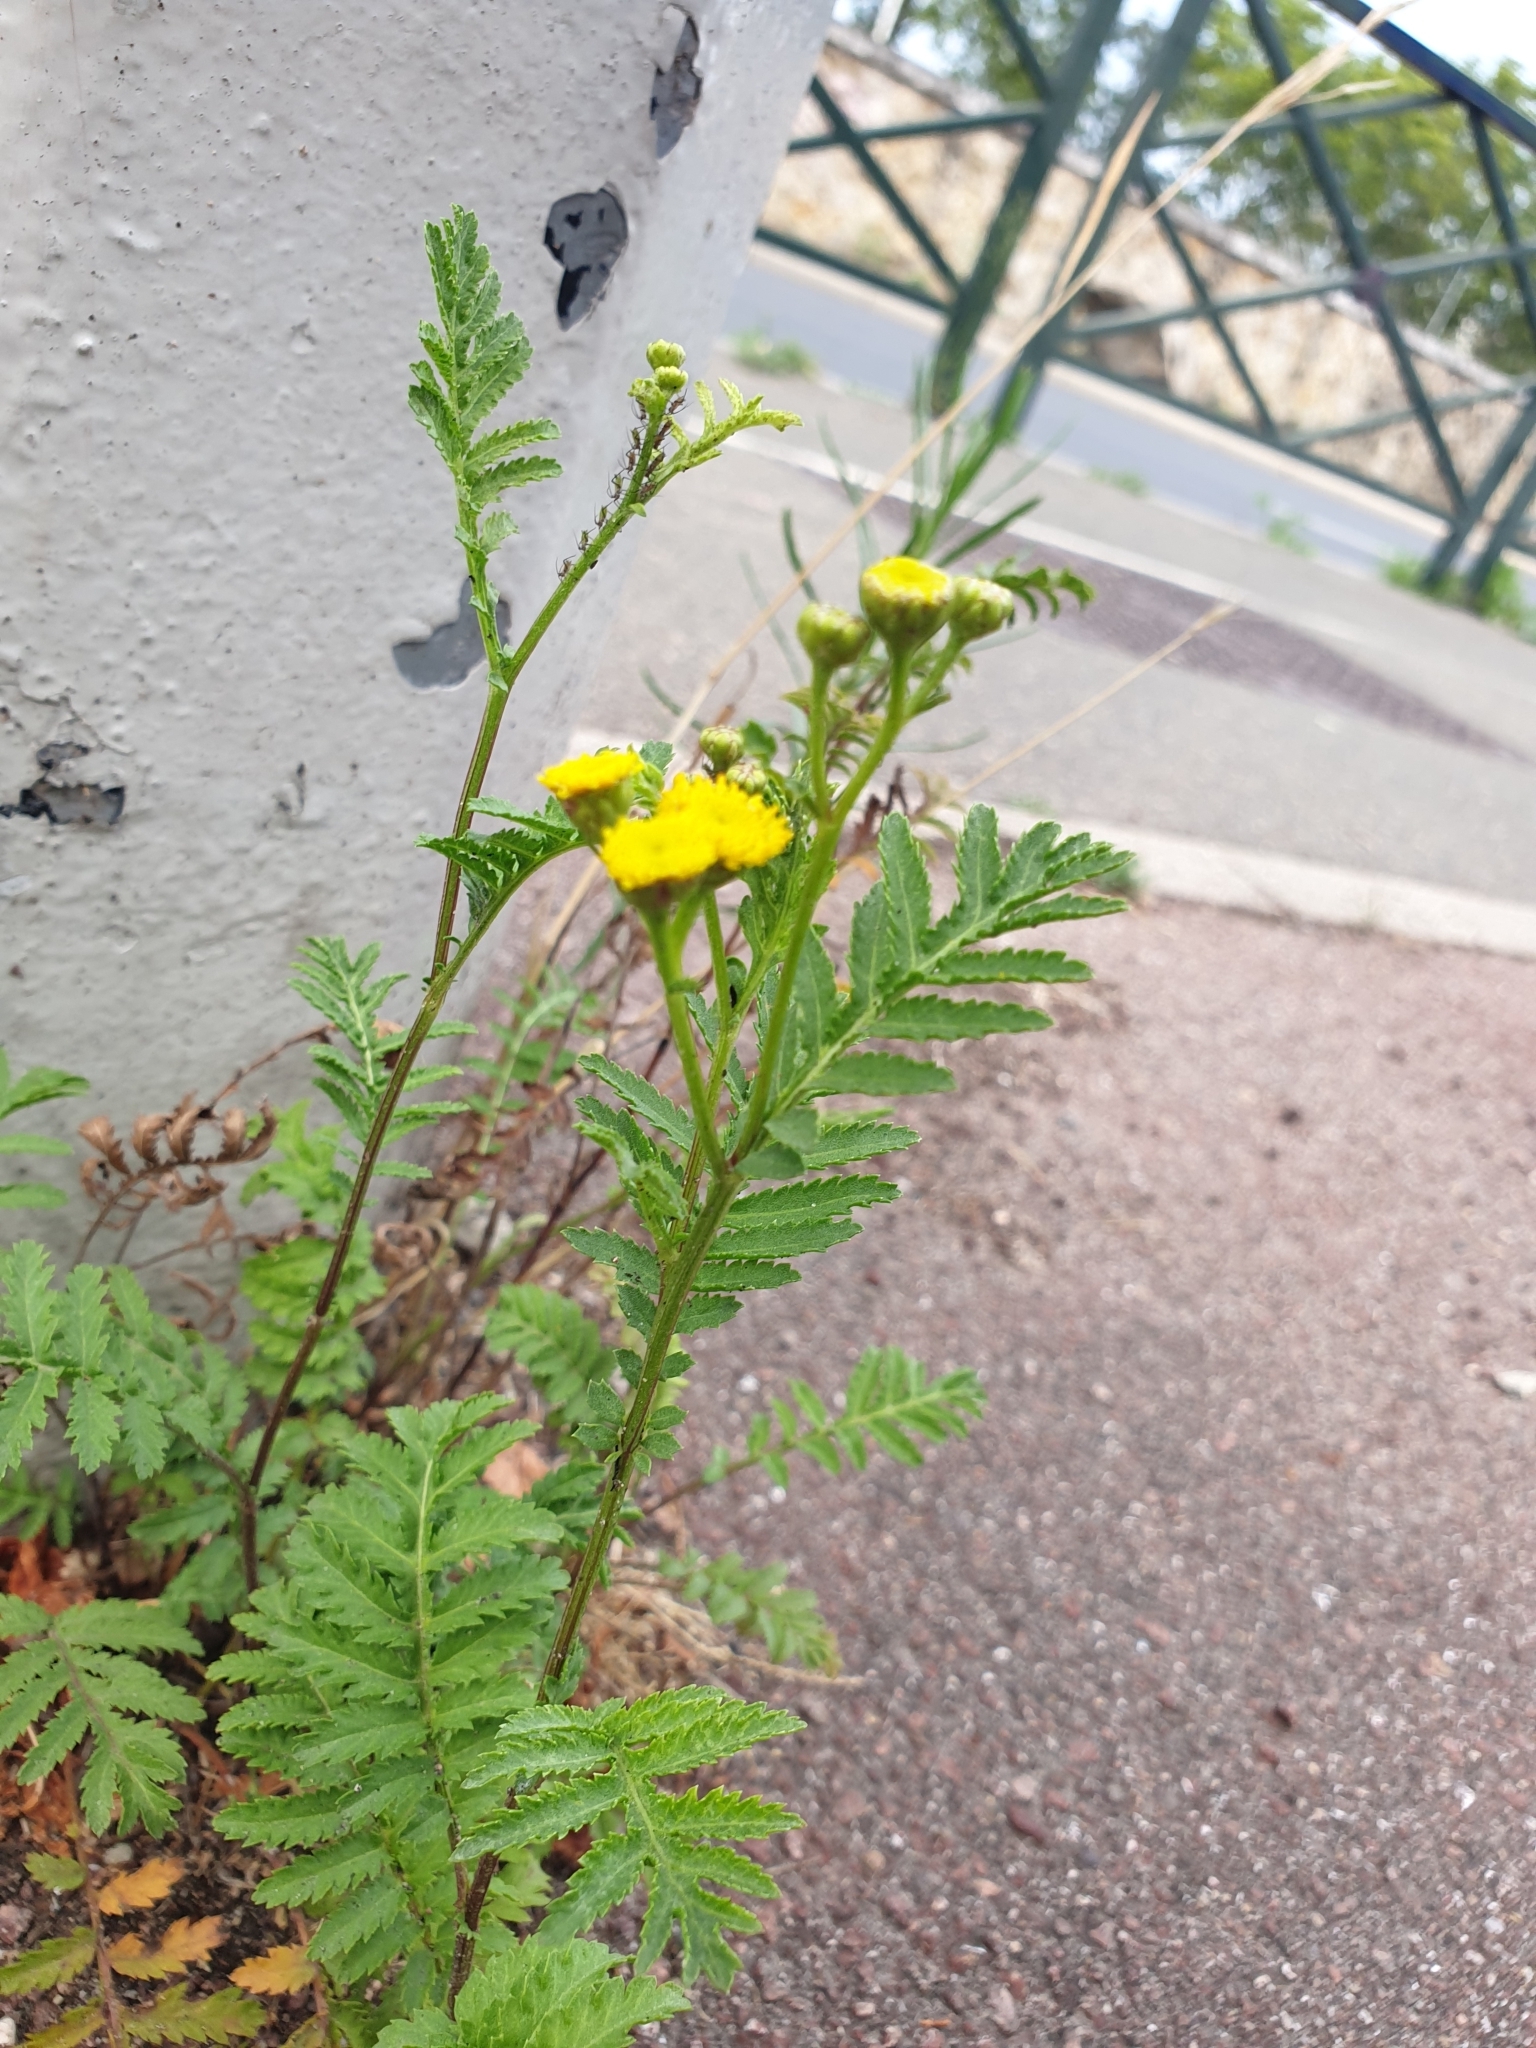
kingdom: Plantae
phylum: Tracheophyta
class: Magnoliopsida
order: Asterales
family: Asteraceae
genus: Tanacetum
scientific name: Tanacetum vulgare
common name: Common tansy
